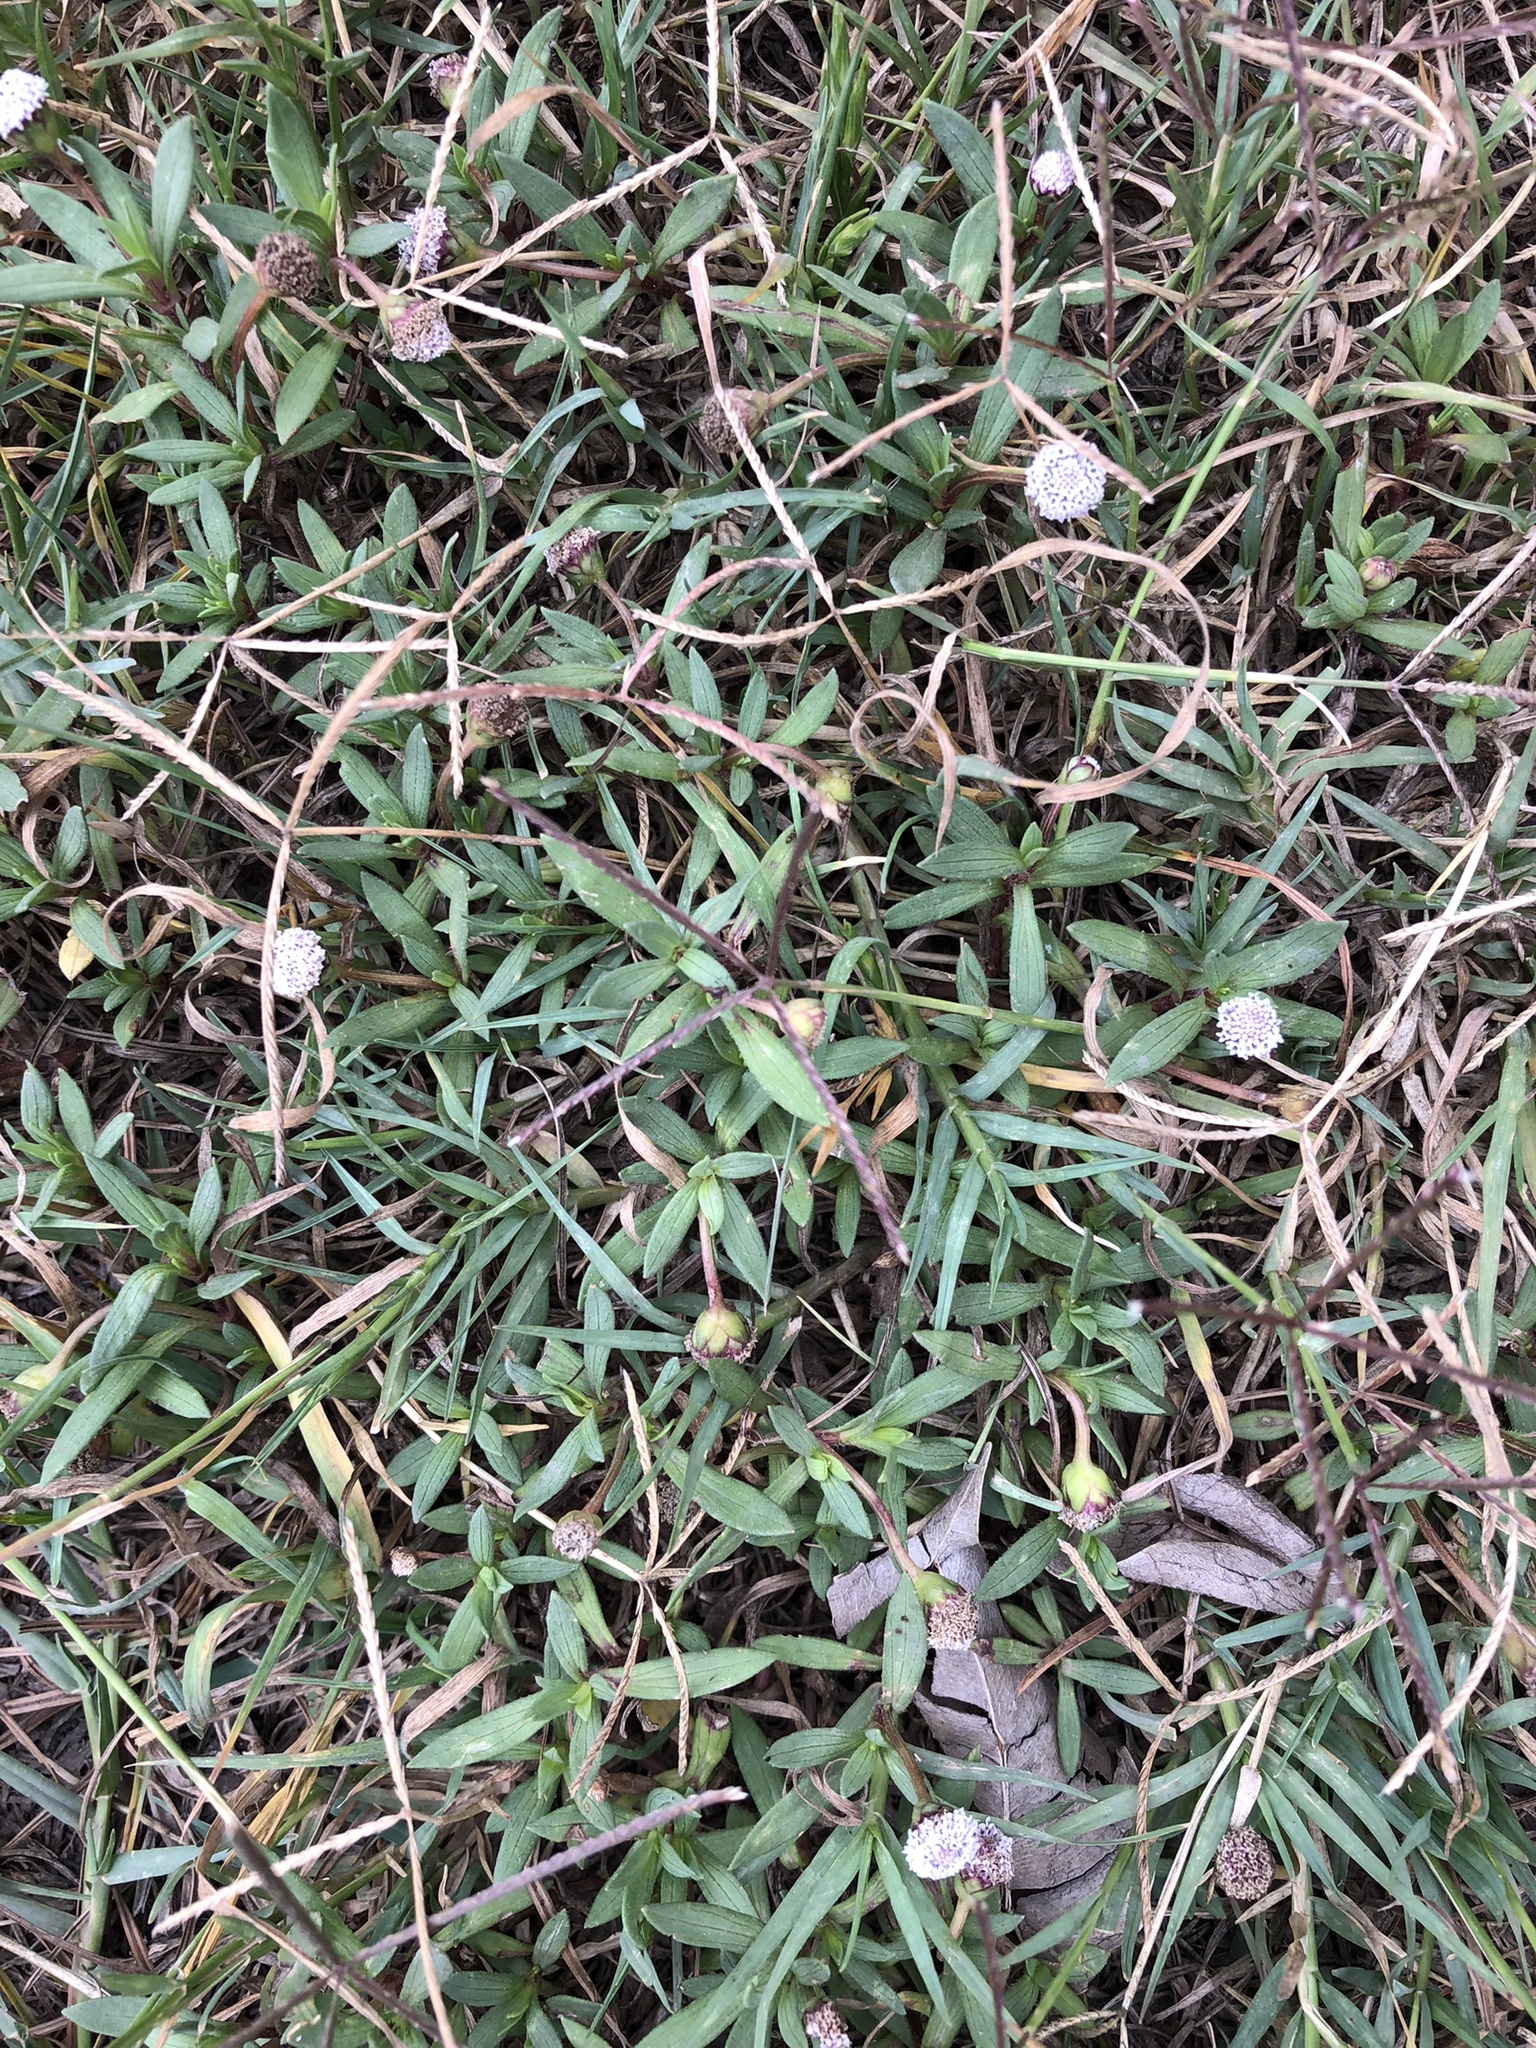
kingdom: Plantae
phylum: Tracheophyta
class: Magnoliopsida
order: Asterales
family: Asteraceae
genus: Spilanthes
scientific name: Spilanthes leiocarpa
